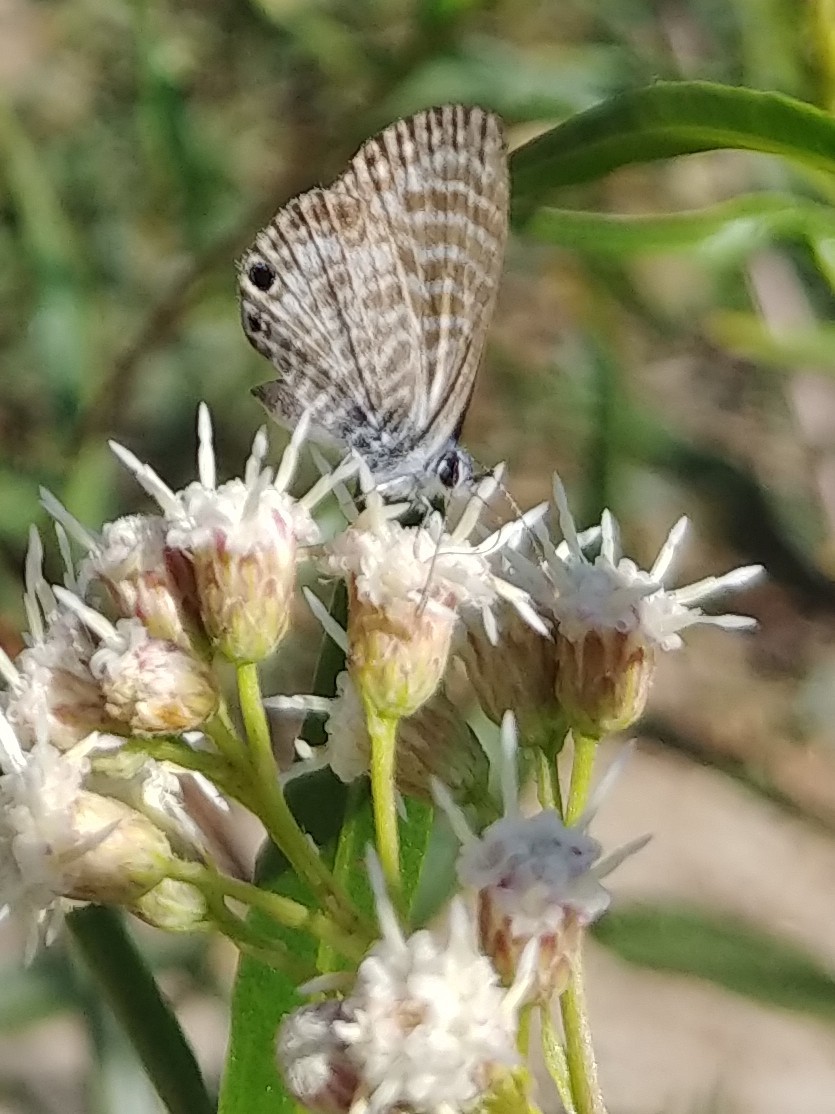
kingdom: Animalia
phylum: Arthropoda
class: Insecta
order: Lepidoptera
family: Lycaenidae
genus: Leptotes
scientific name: Leptotes marina
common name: Marine blue
